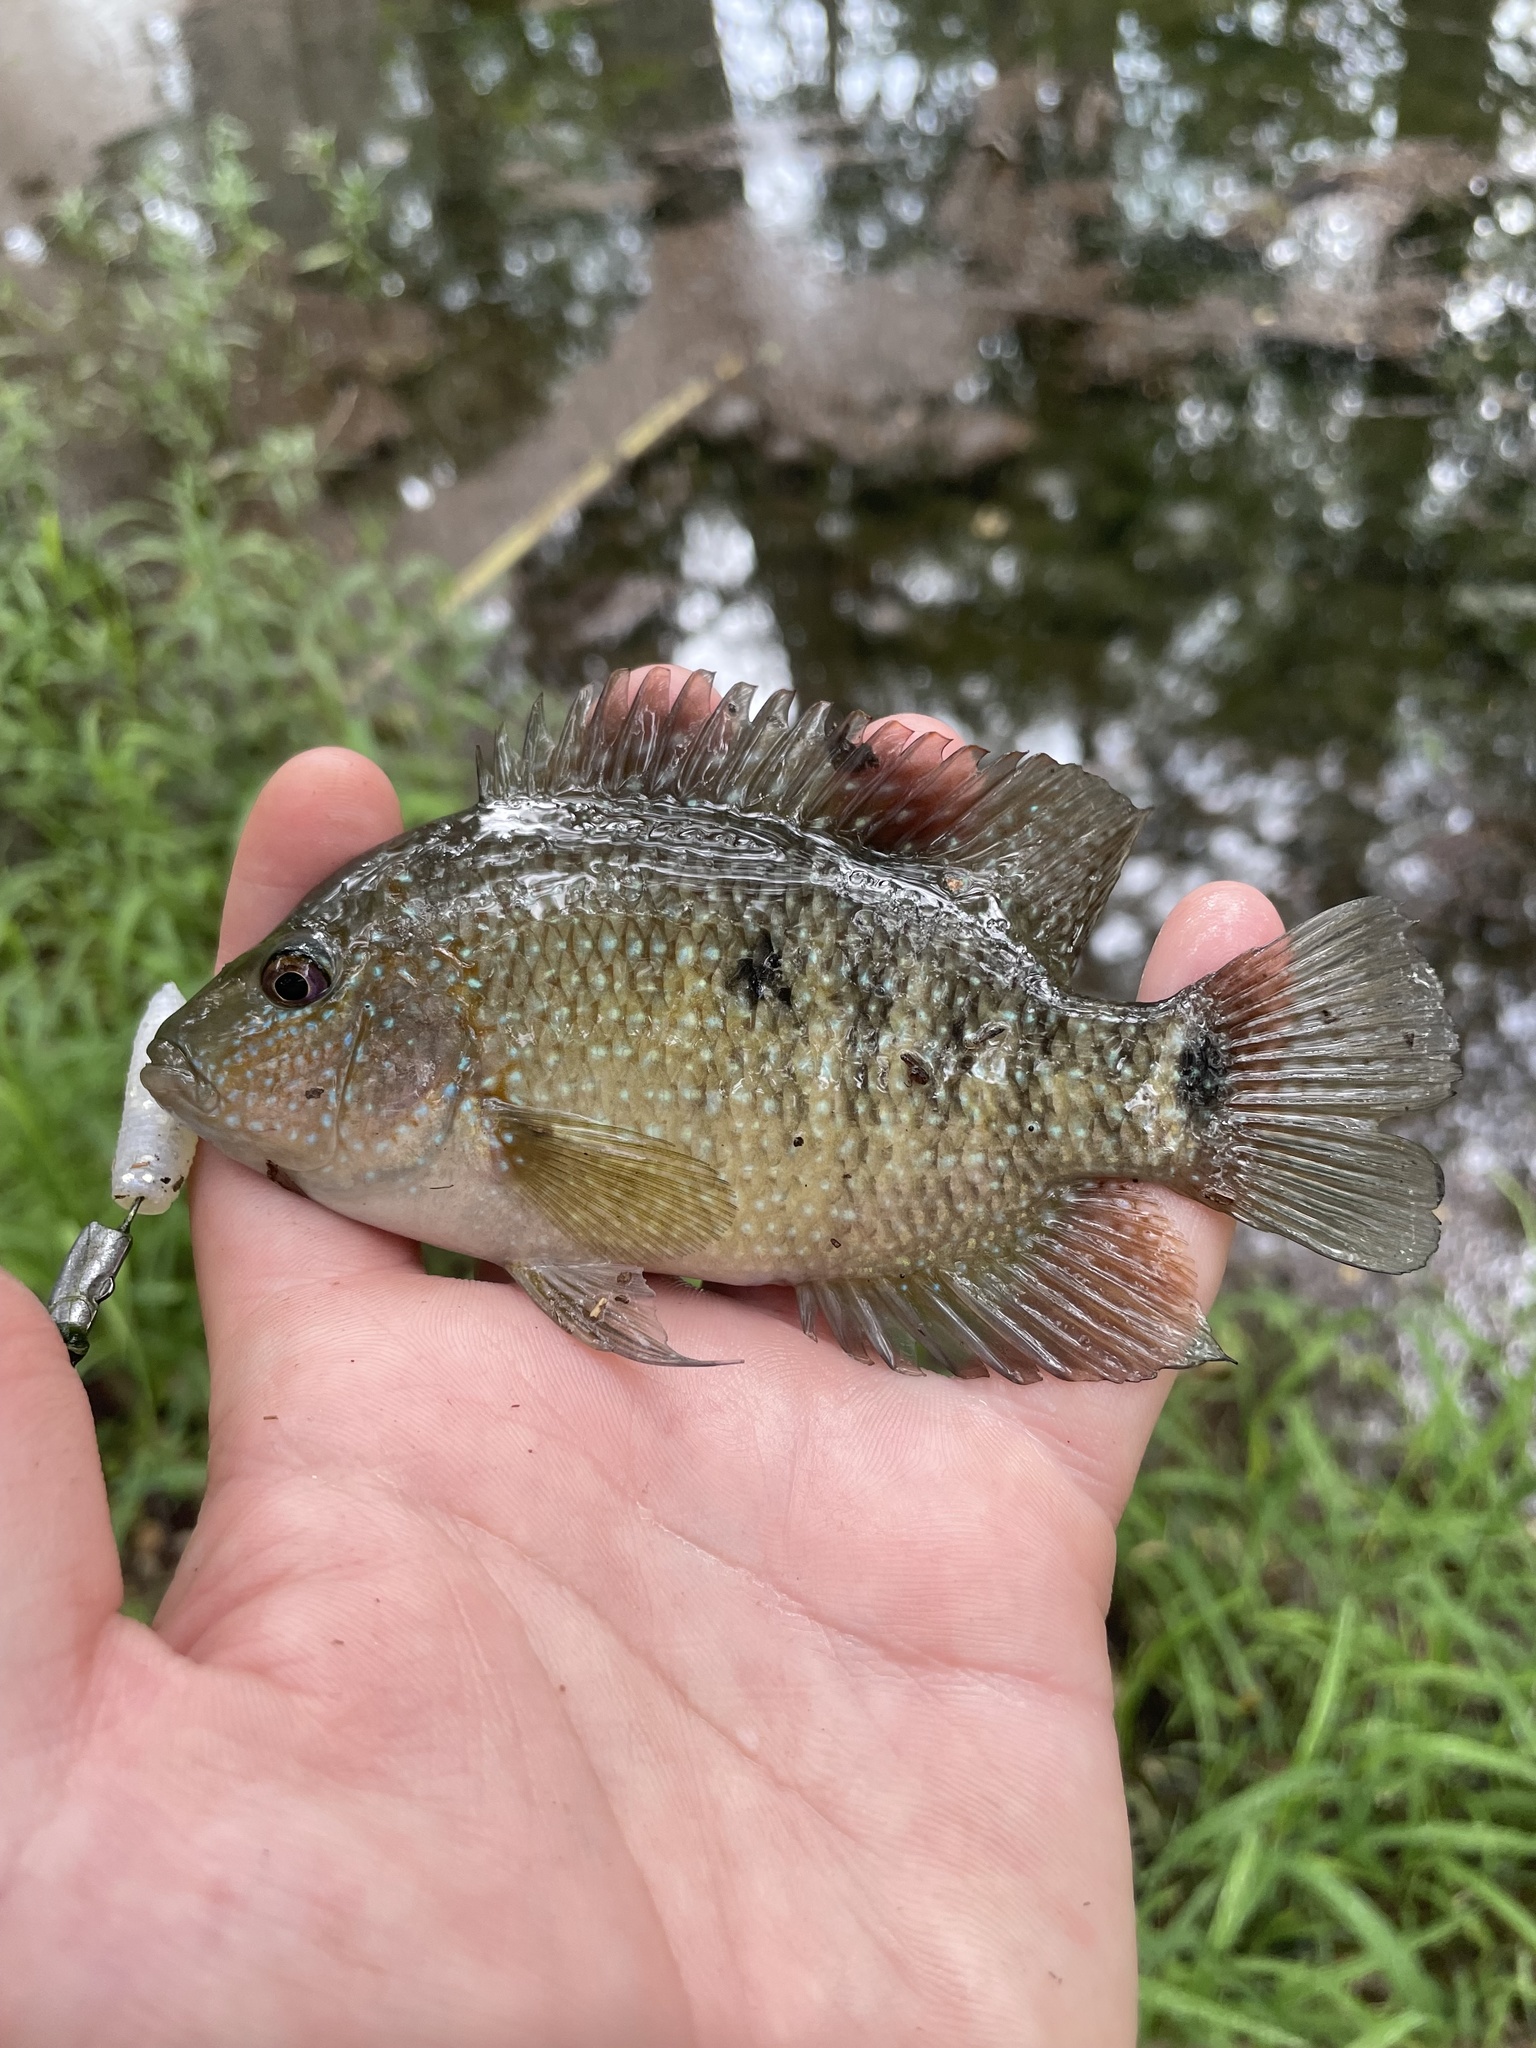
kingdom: Animalia
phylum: Chordata
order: Perciformes
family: Cichlidae
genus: Herichthys
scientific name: Herichthys cyanoguttatus
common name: Rio grande cichlid
